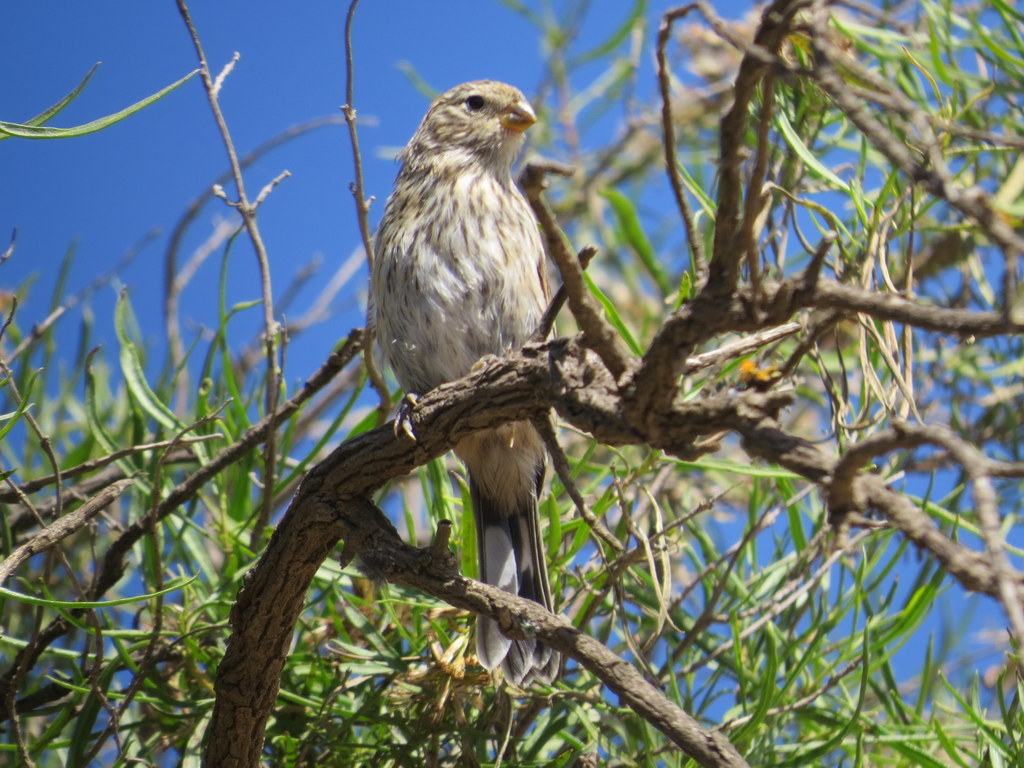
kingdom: Animalia
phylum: Chordata
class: Aves
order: Passeriformes
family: Thraupidae
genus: Catamenia
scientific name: Catamenia analis
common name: Band-tailed seedeater
